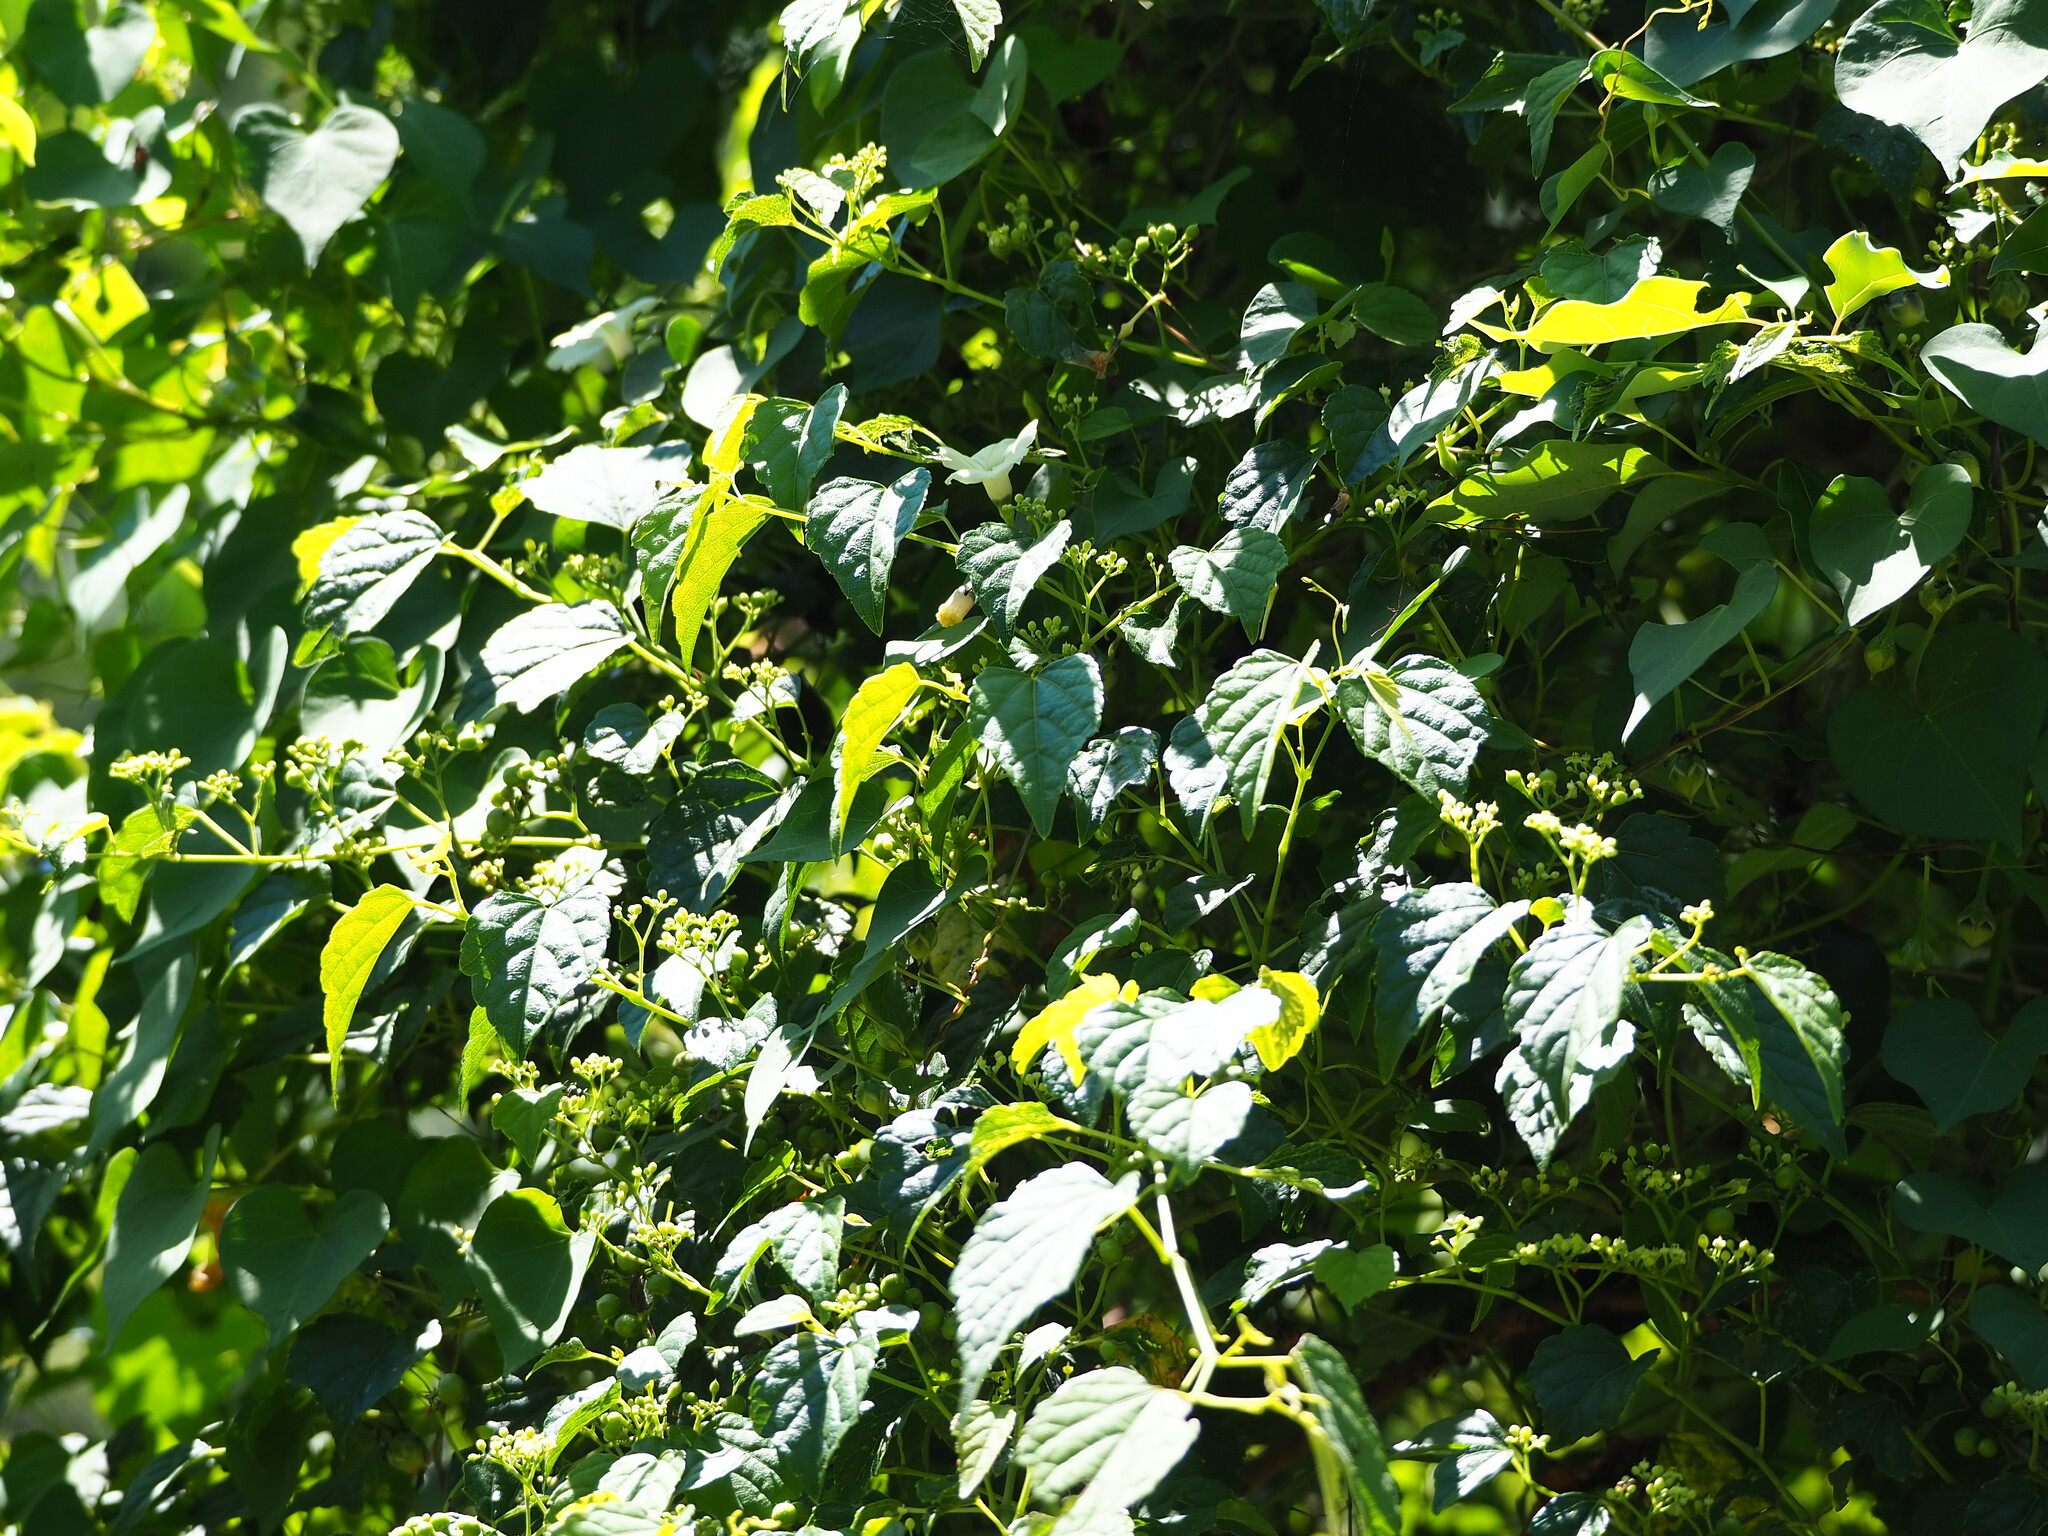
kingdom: Plantae
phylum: Tracheophyta
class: Magnoliopsida
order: Vitales
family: Vitaceae
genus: Ampelopsis
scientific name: Ampelopsis glandulosa
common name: Amur peppervine
